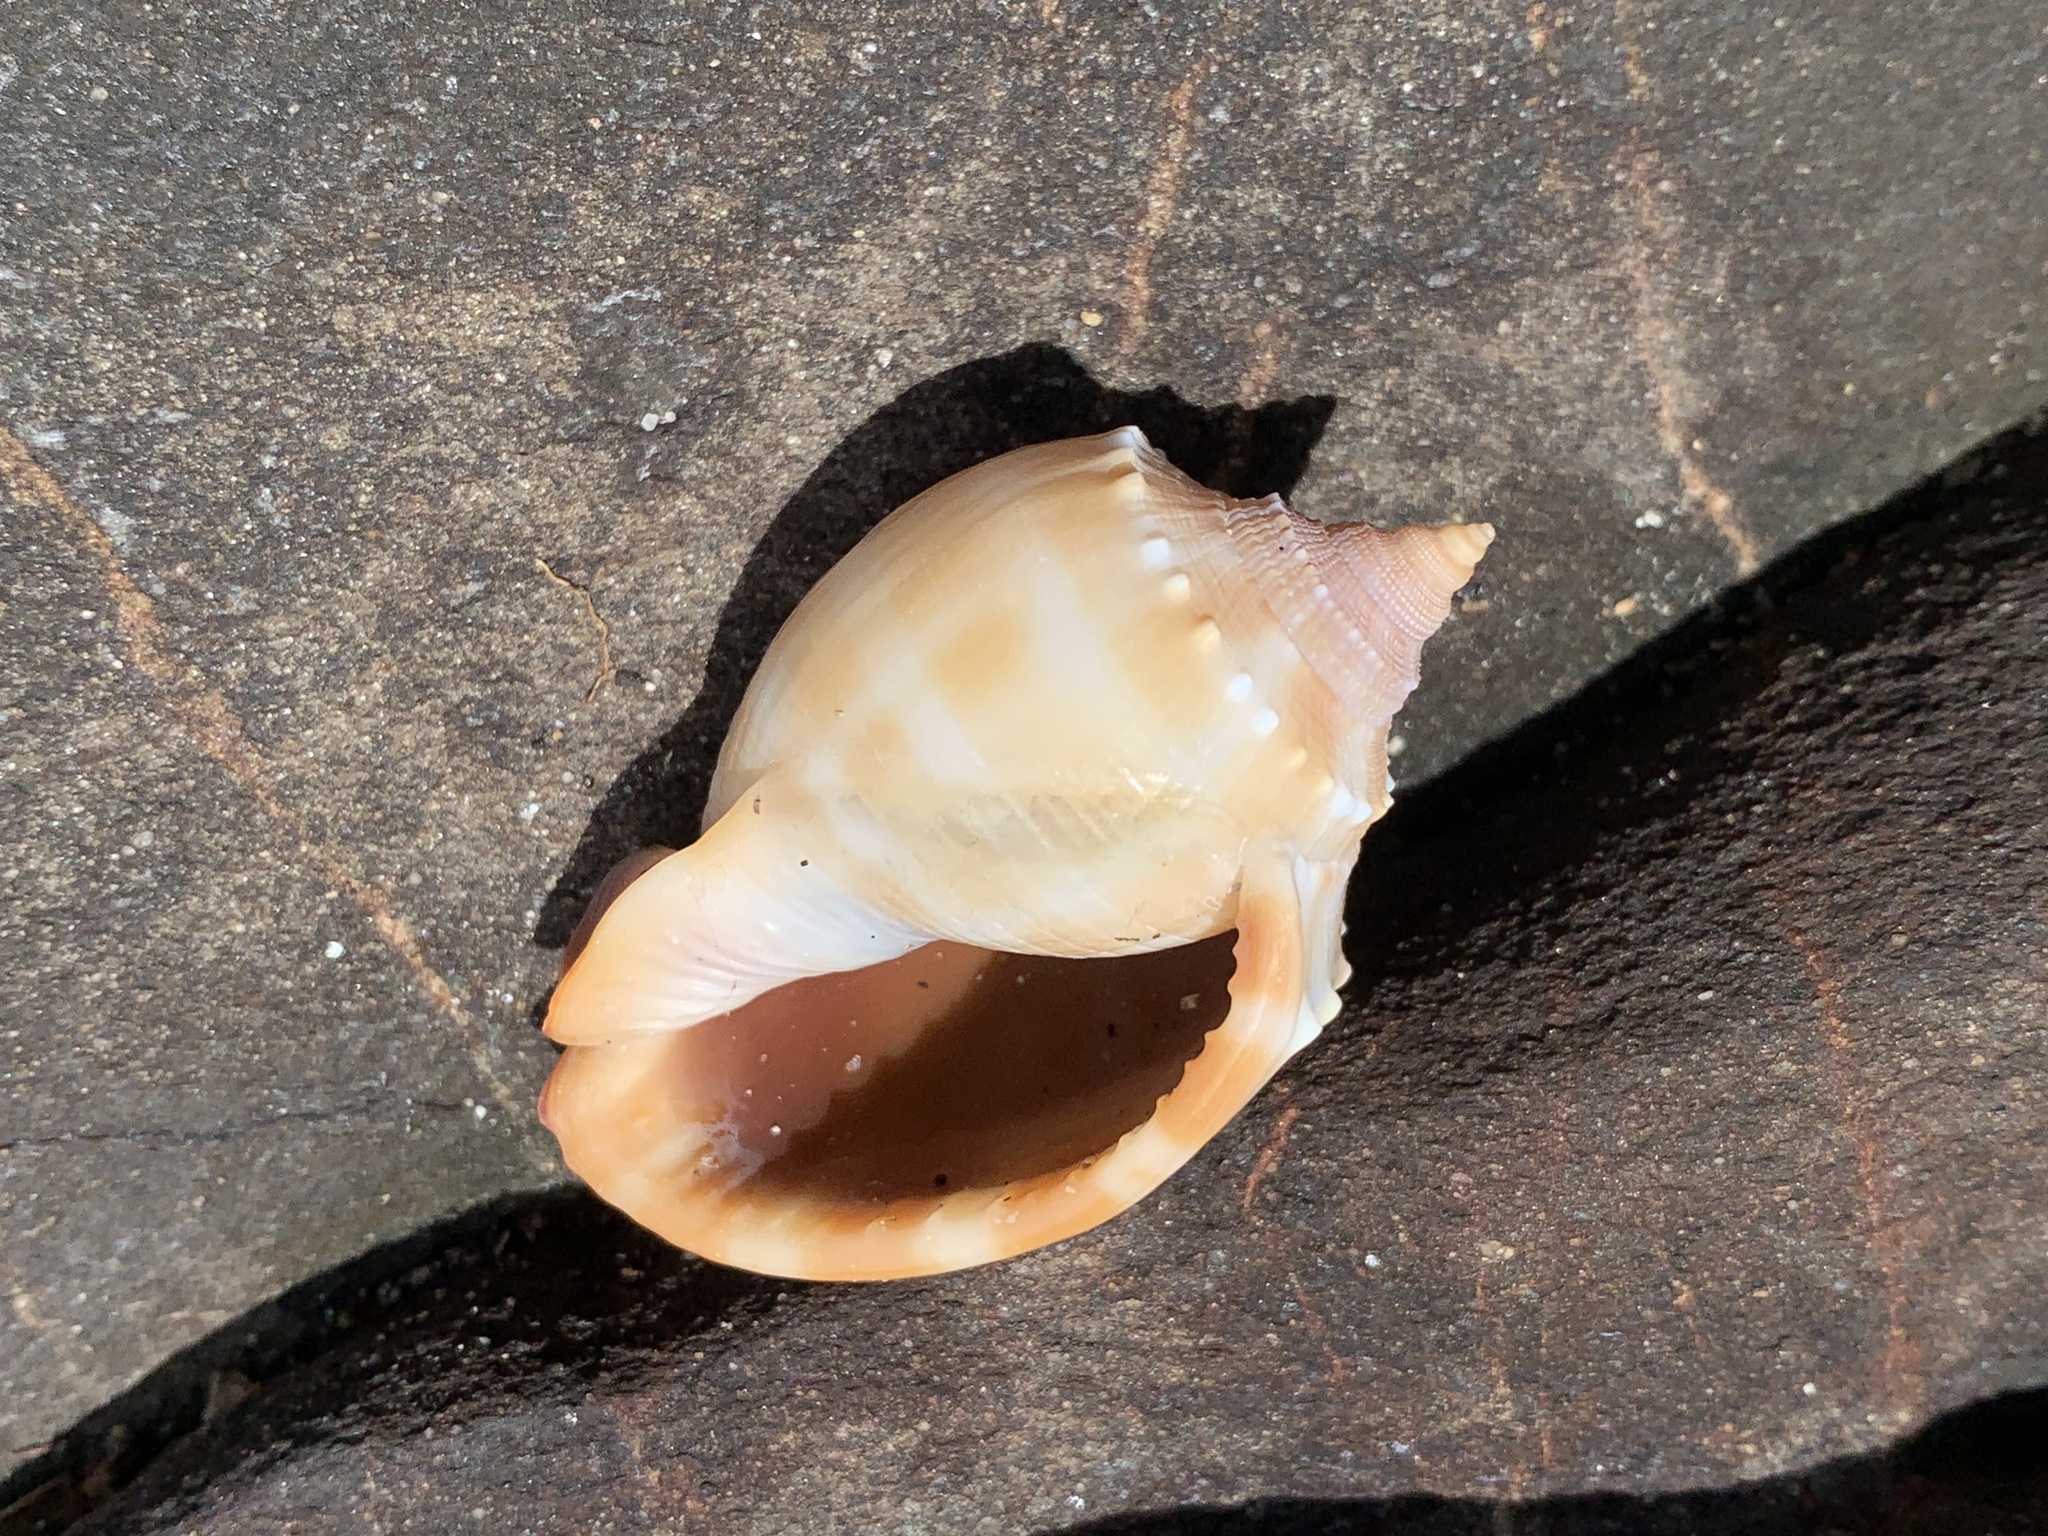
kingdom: Animalia
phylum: Mollusca
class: Gastropoda
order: Littorinimorpha
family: Cassidae
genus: Phalium
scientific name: Phalium bandatum
